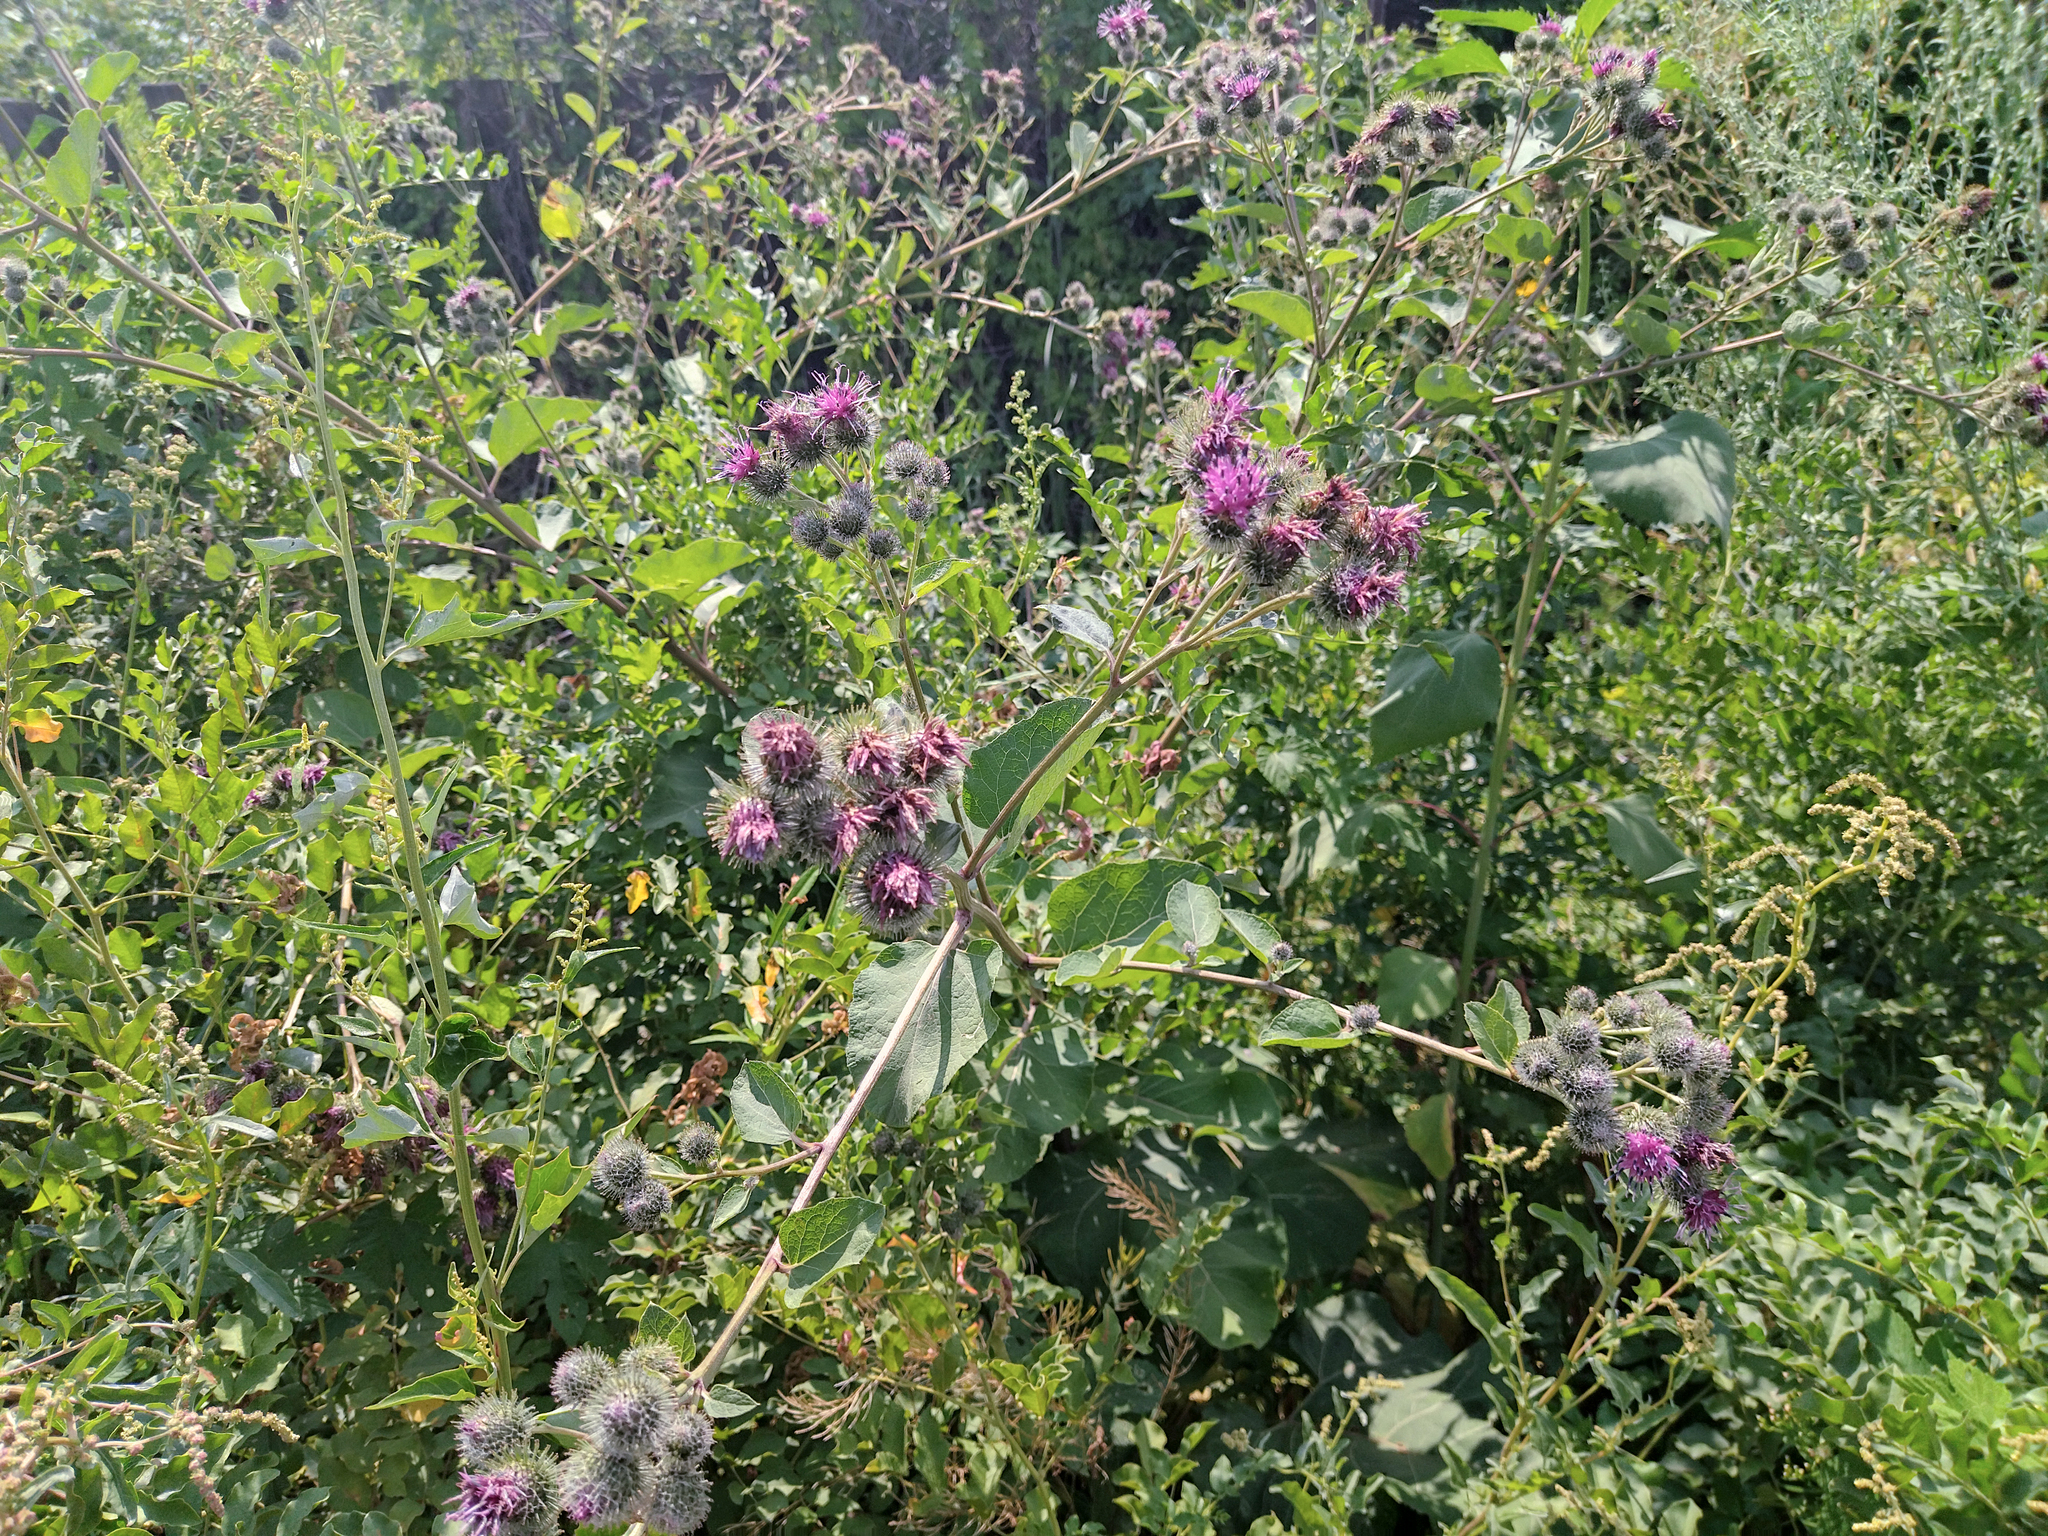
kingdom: Plantae
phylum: Tracheophyta
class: Magnoliopsida
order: Asterales
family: Asteraceae
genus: Arctium
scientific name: Arctium tomentosum
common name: Woolly burdock
